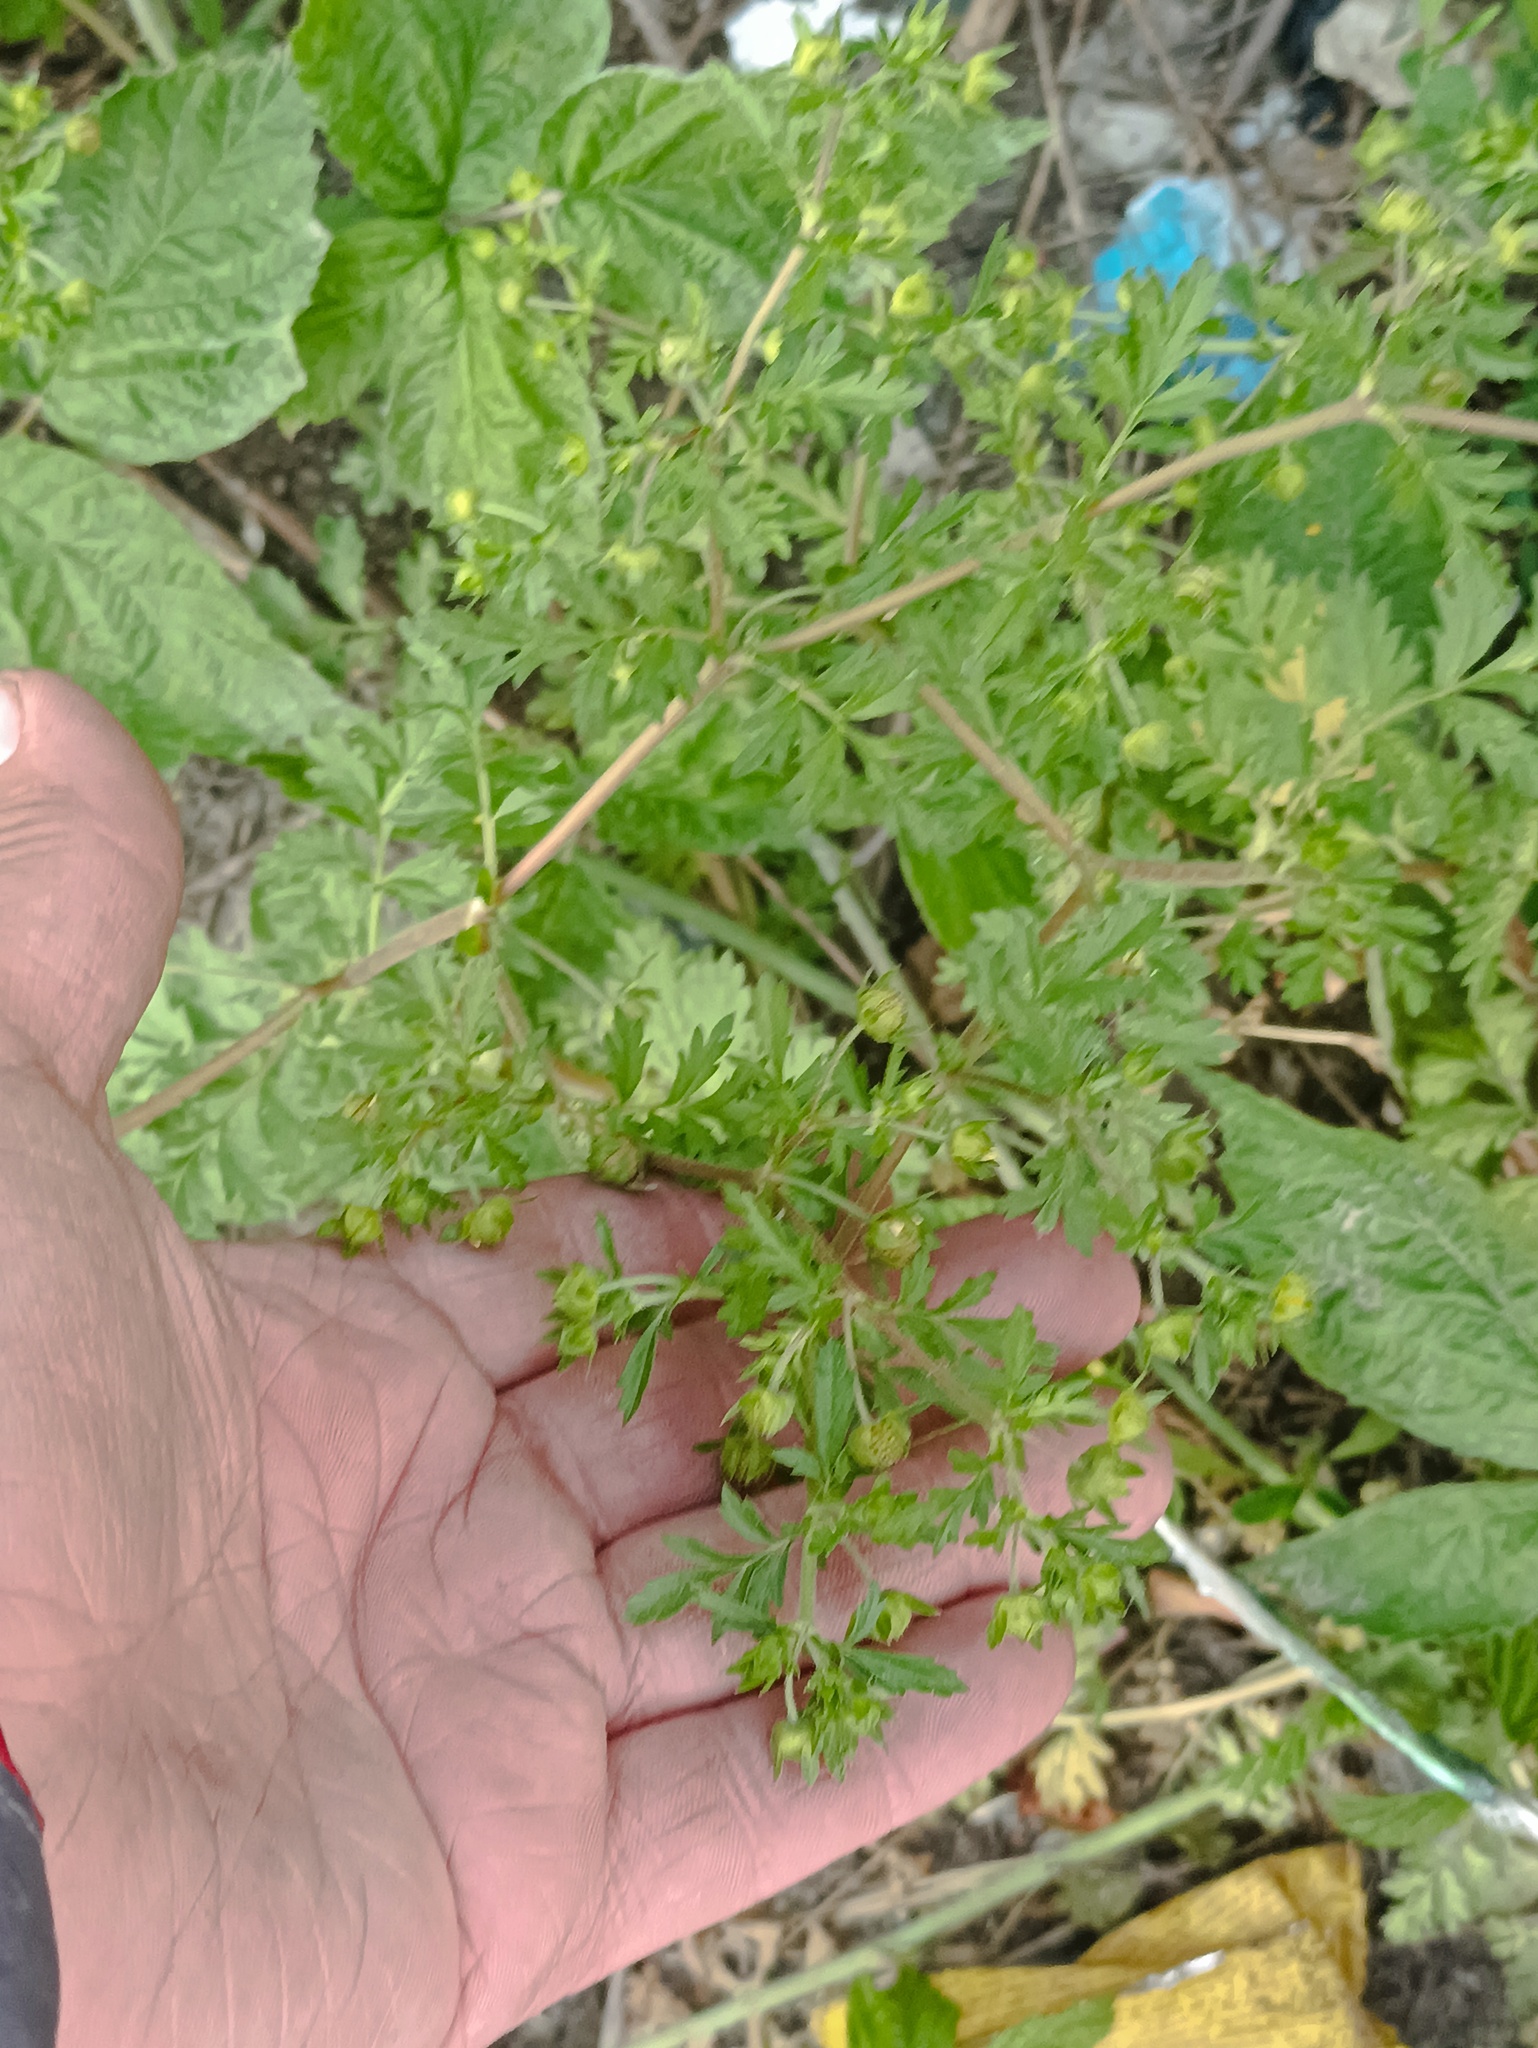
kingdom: Plantae
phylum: Tracheophyta
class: Magnoliopsida
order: Rosales
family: Rosaceae
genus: Potentilla
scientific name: Potentilla supina
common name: Prostrate cinquefoil
